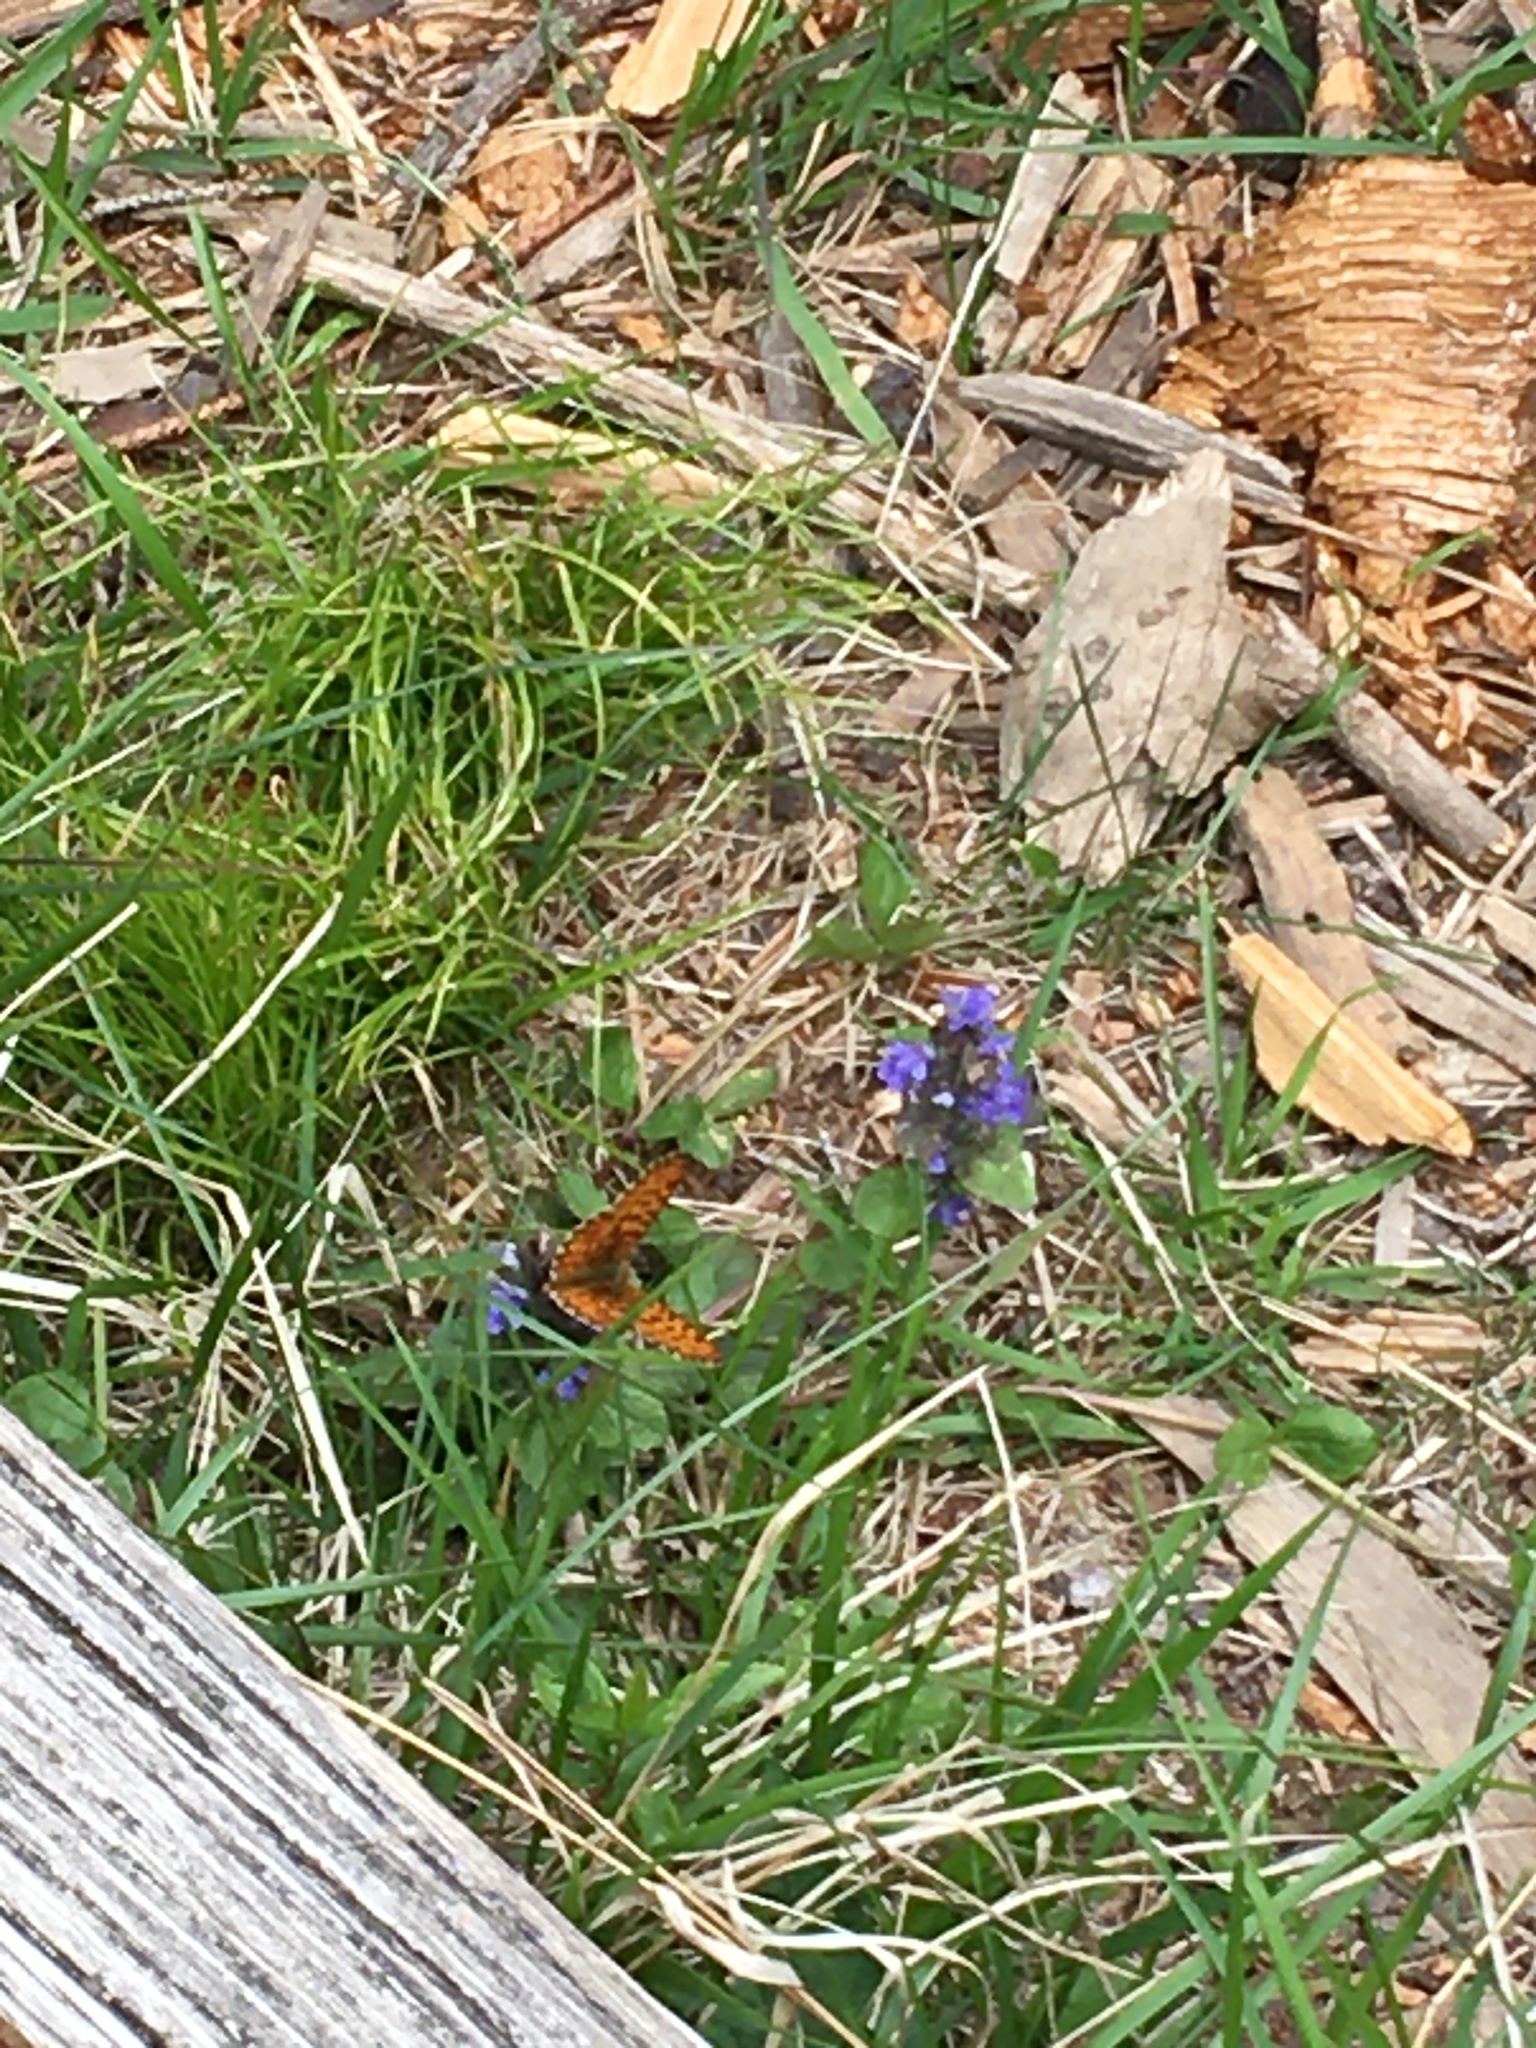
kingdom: Animalia
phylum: Arthropoda
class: Insecta
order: Lepidoptera
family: Nymphalidae
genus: Clossiana
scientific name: Clossiana euphrosyne
